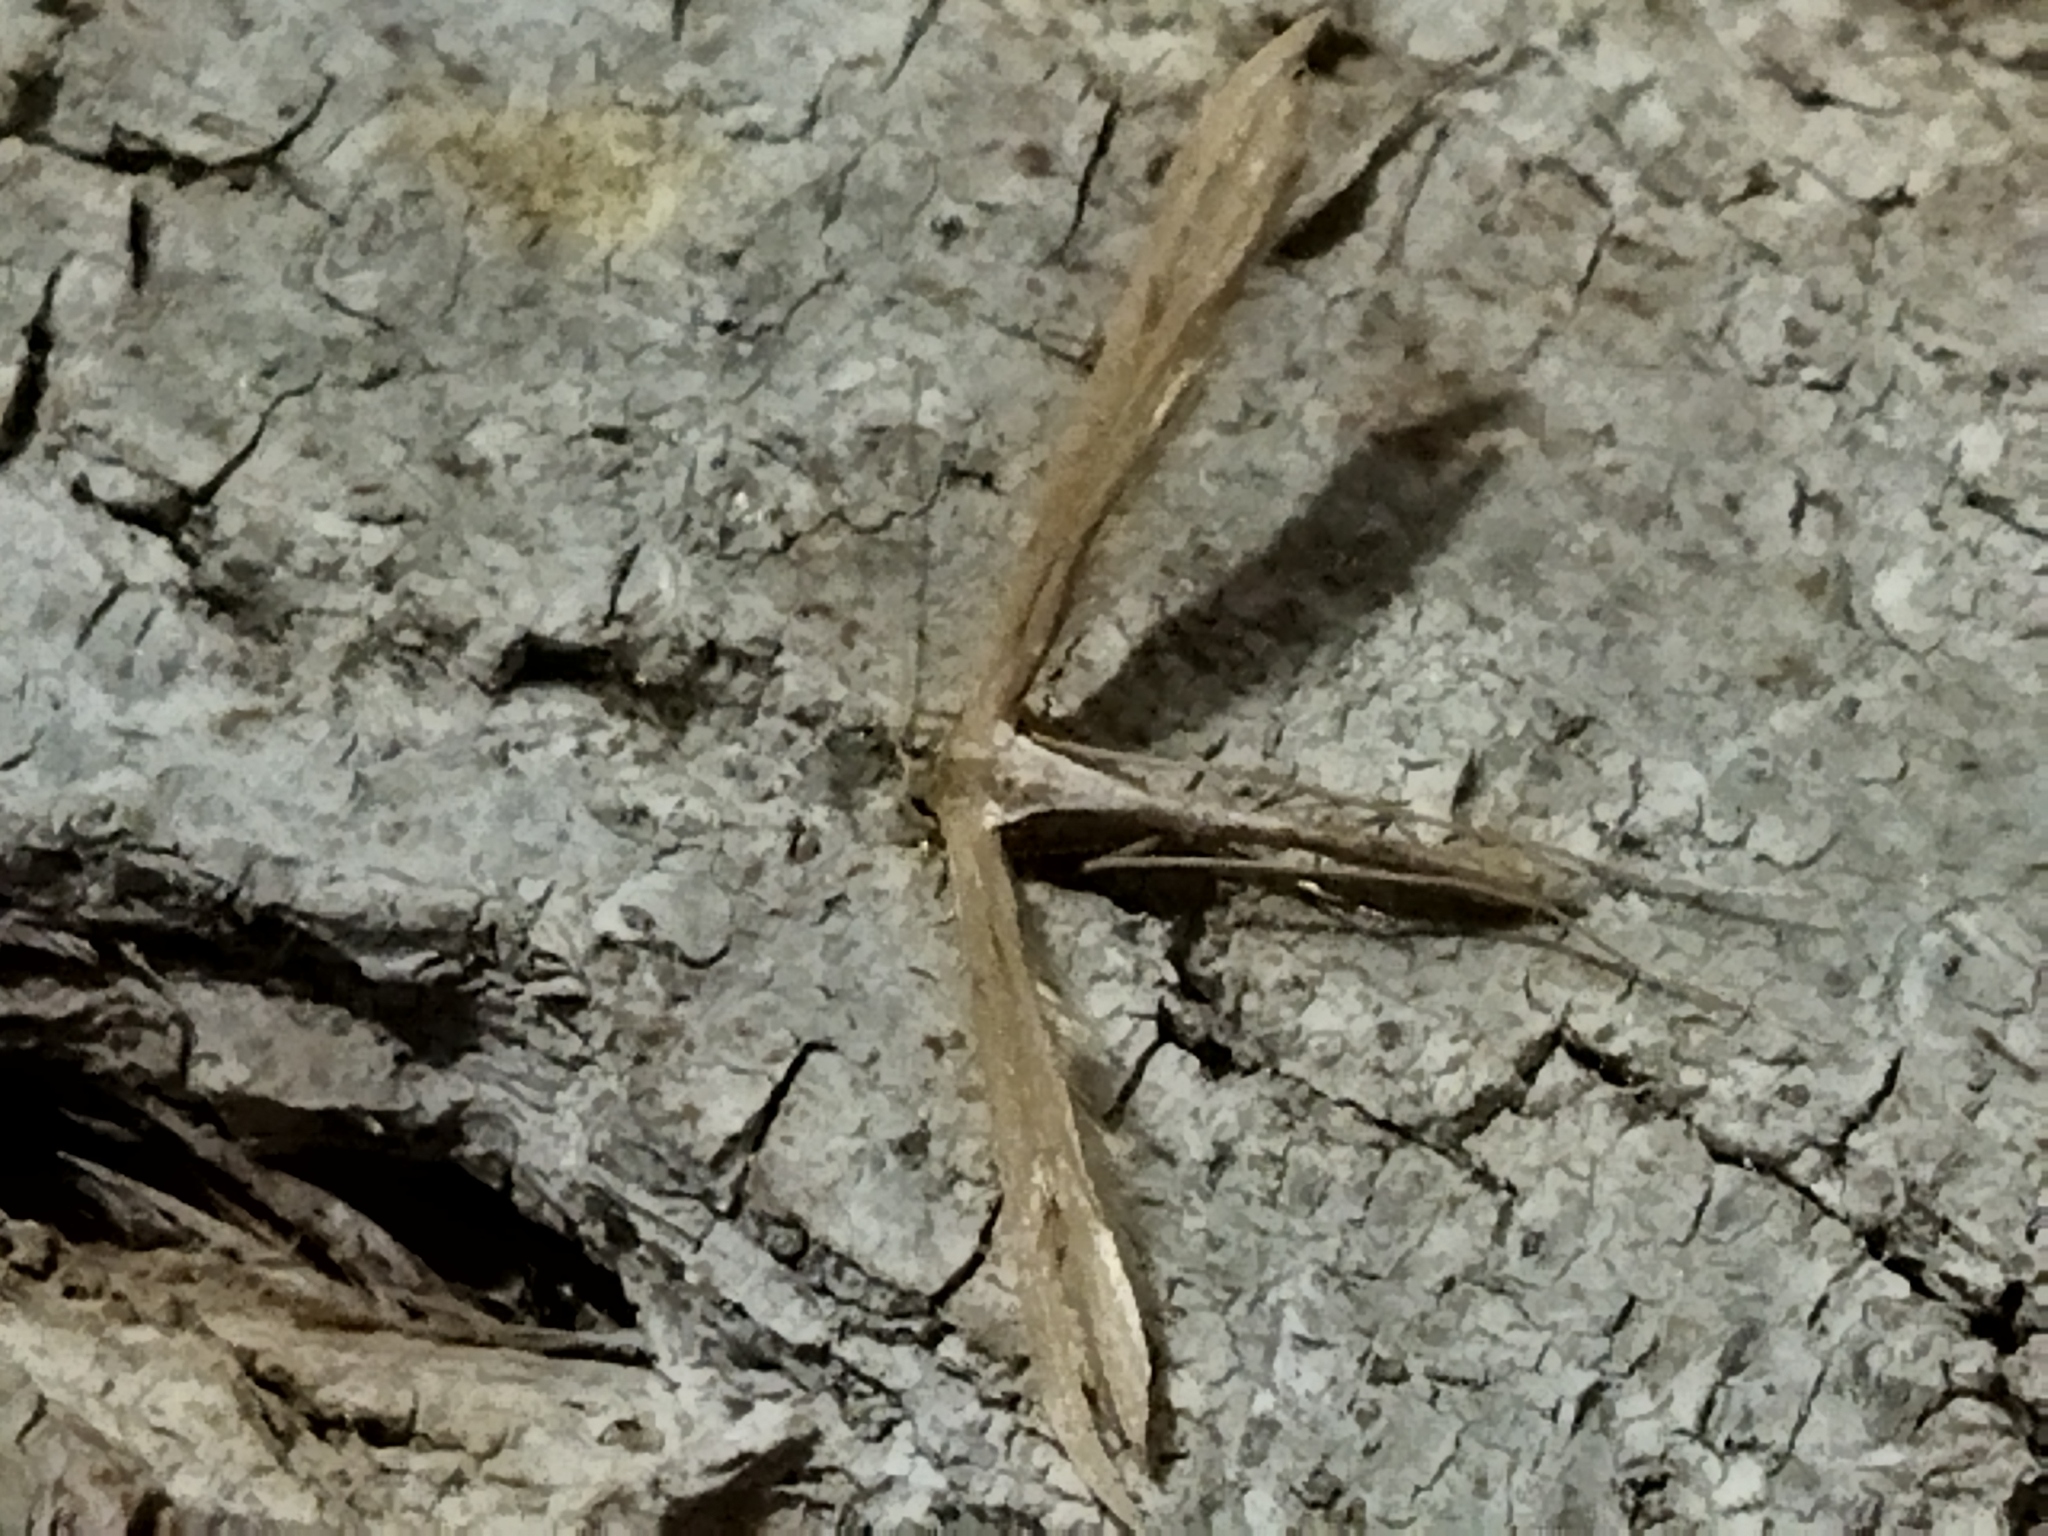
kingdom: Animalia
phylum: Arthropoda
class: Insecta
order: Lepidoptera
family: Pterophoridae
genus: Emmelina
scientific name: Emmelina monodactyla
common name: Common plume
